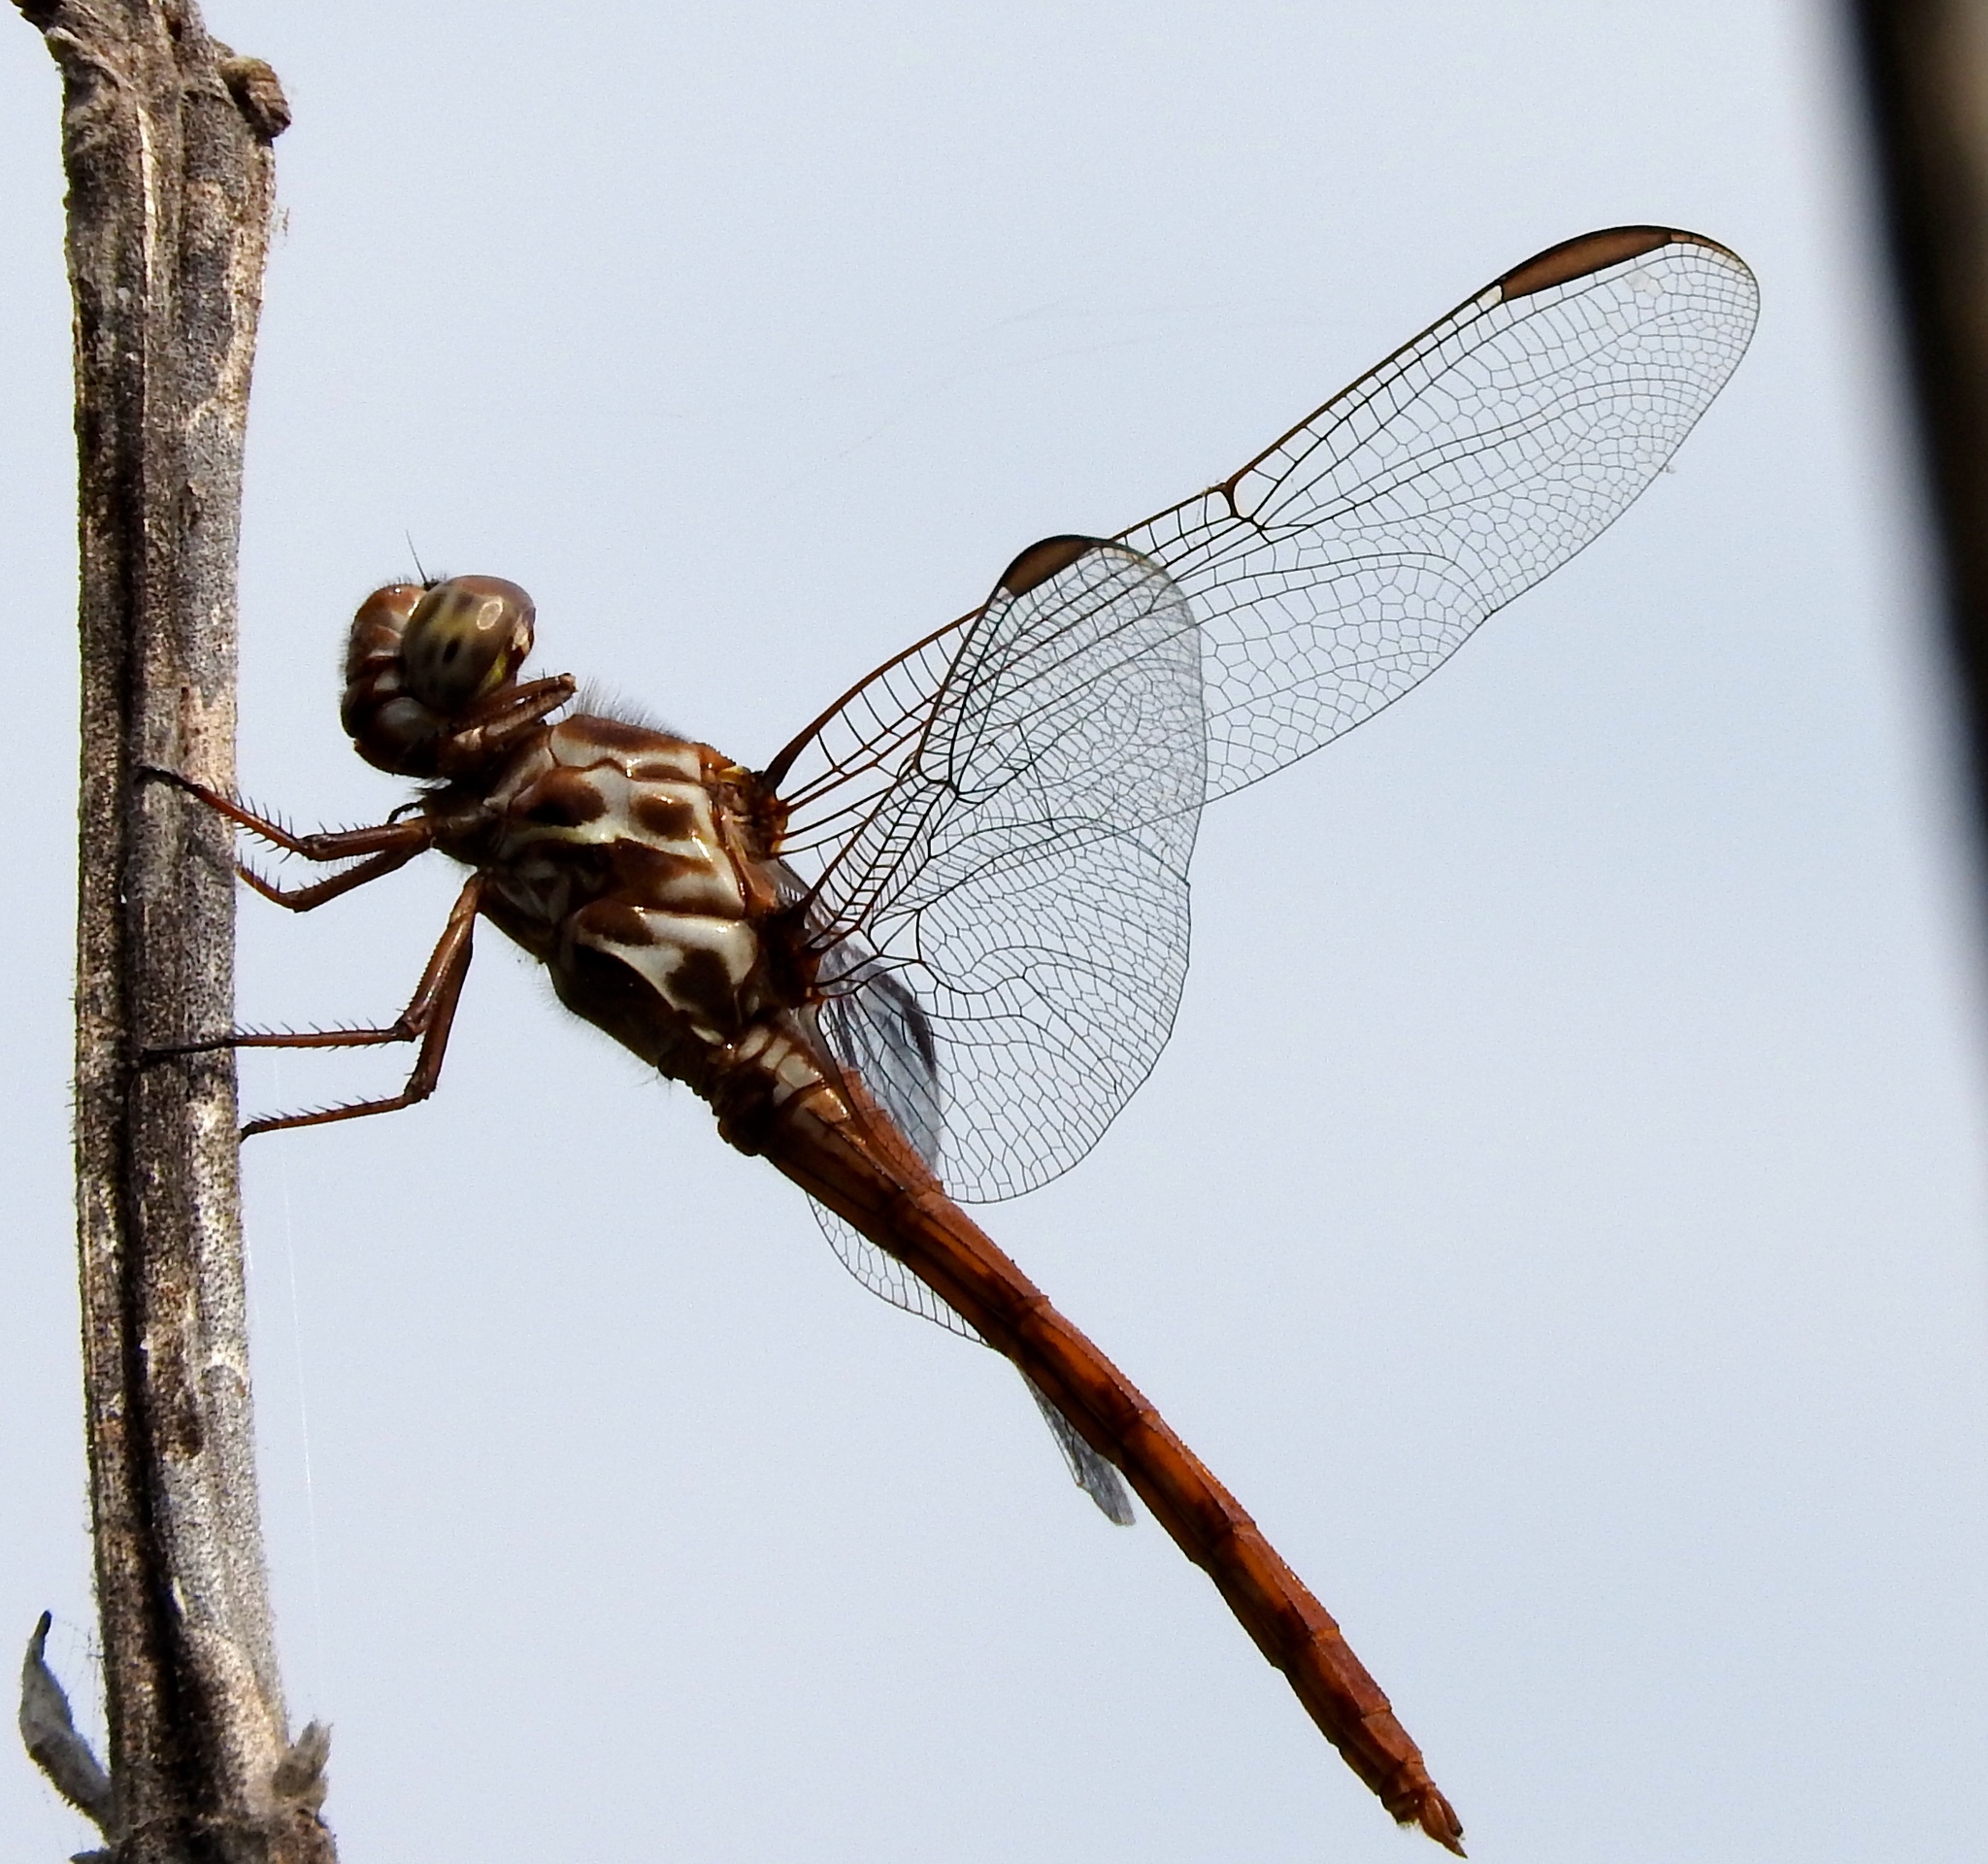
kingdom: Animalia
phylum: Arthropoda
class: Insecta
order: Odonata
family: Libellulidae
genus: Orthemis
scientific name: Orthemis ferruginea
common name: Roseate skimmer
